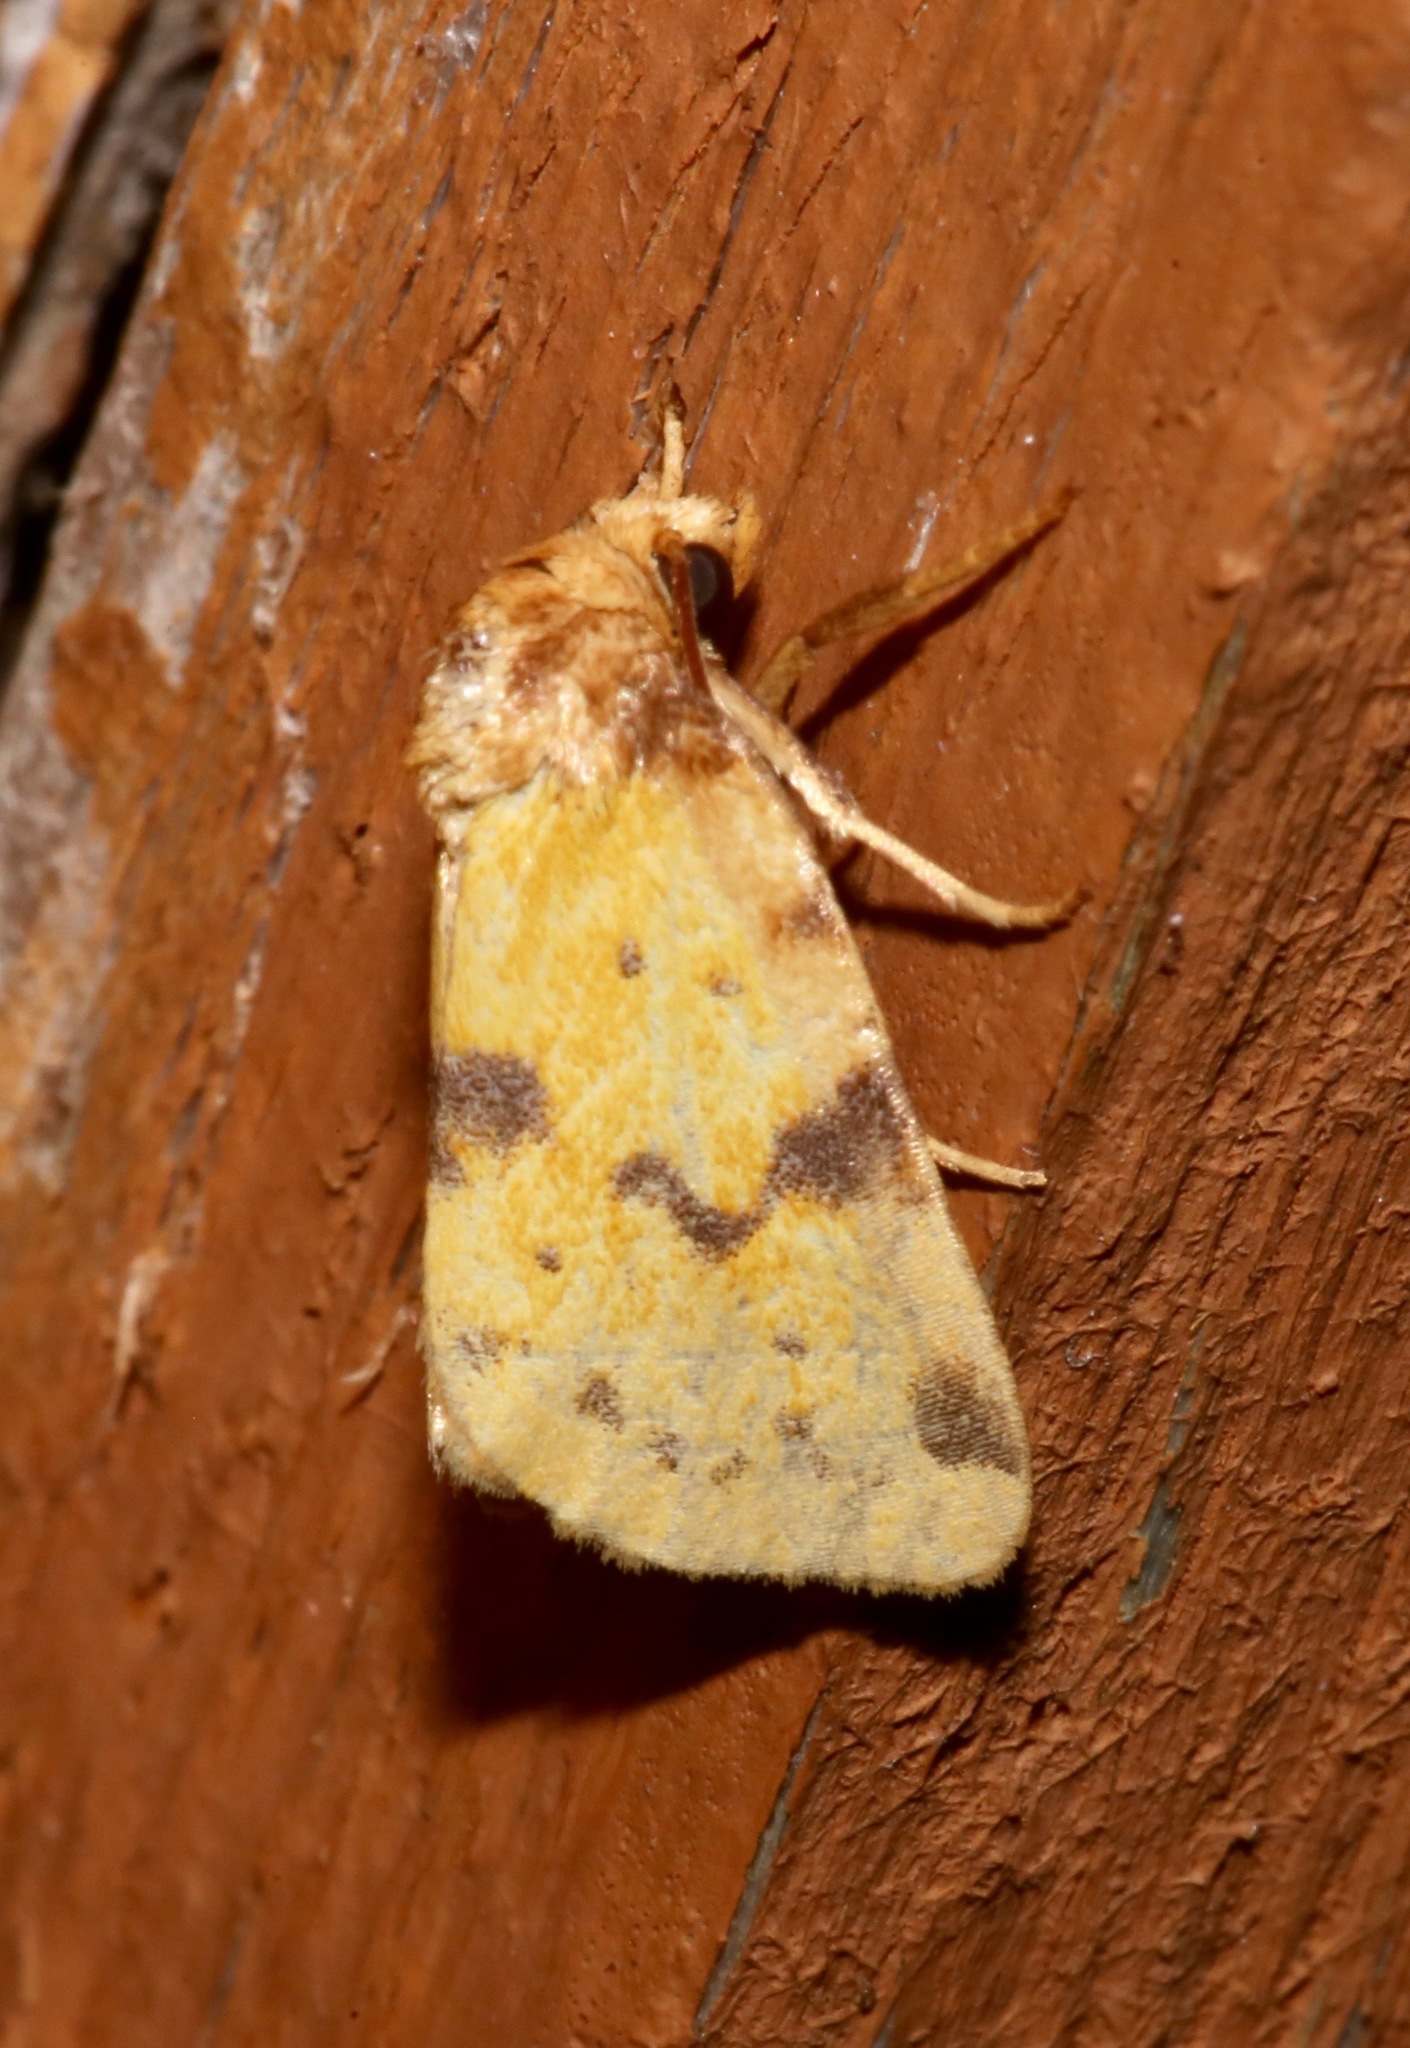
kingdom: Animalia
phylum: Arthropoda
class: Insecta
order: Lepidoptera
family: Noctuidae
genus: Azenia
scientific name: Azenia obtusa
